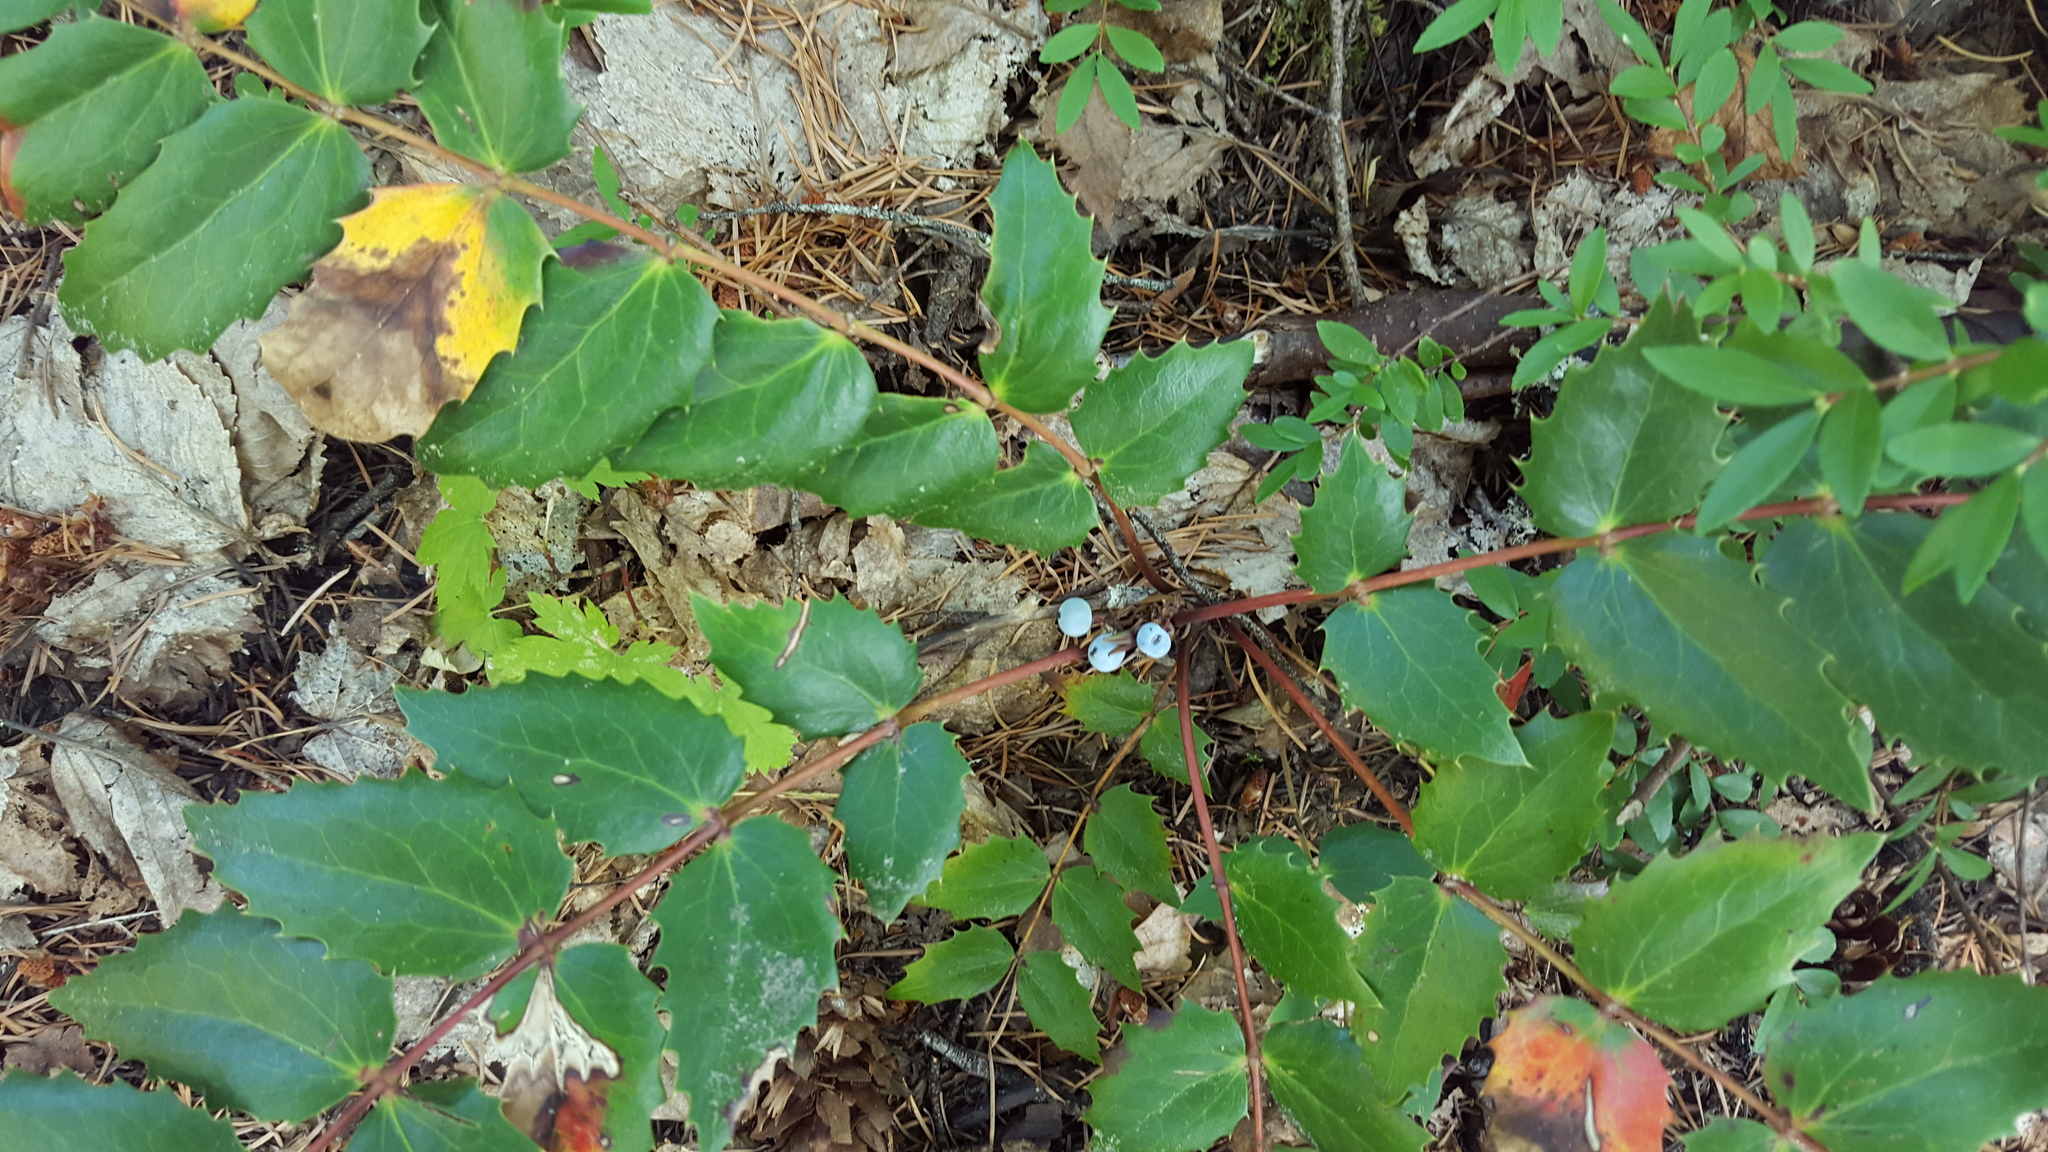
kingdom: Plantae
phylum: Tracheophyta
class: Magnoliopsida
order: Ranunculales
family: Berberidaceae
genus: Mahonia
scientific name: Mahonia nervosa
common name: Cascade oregon-grape
